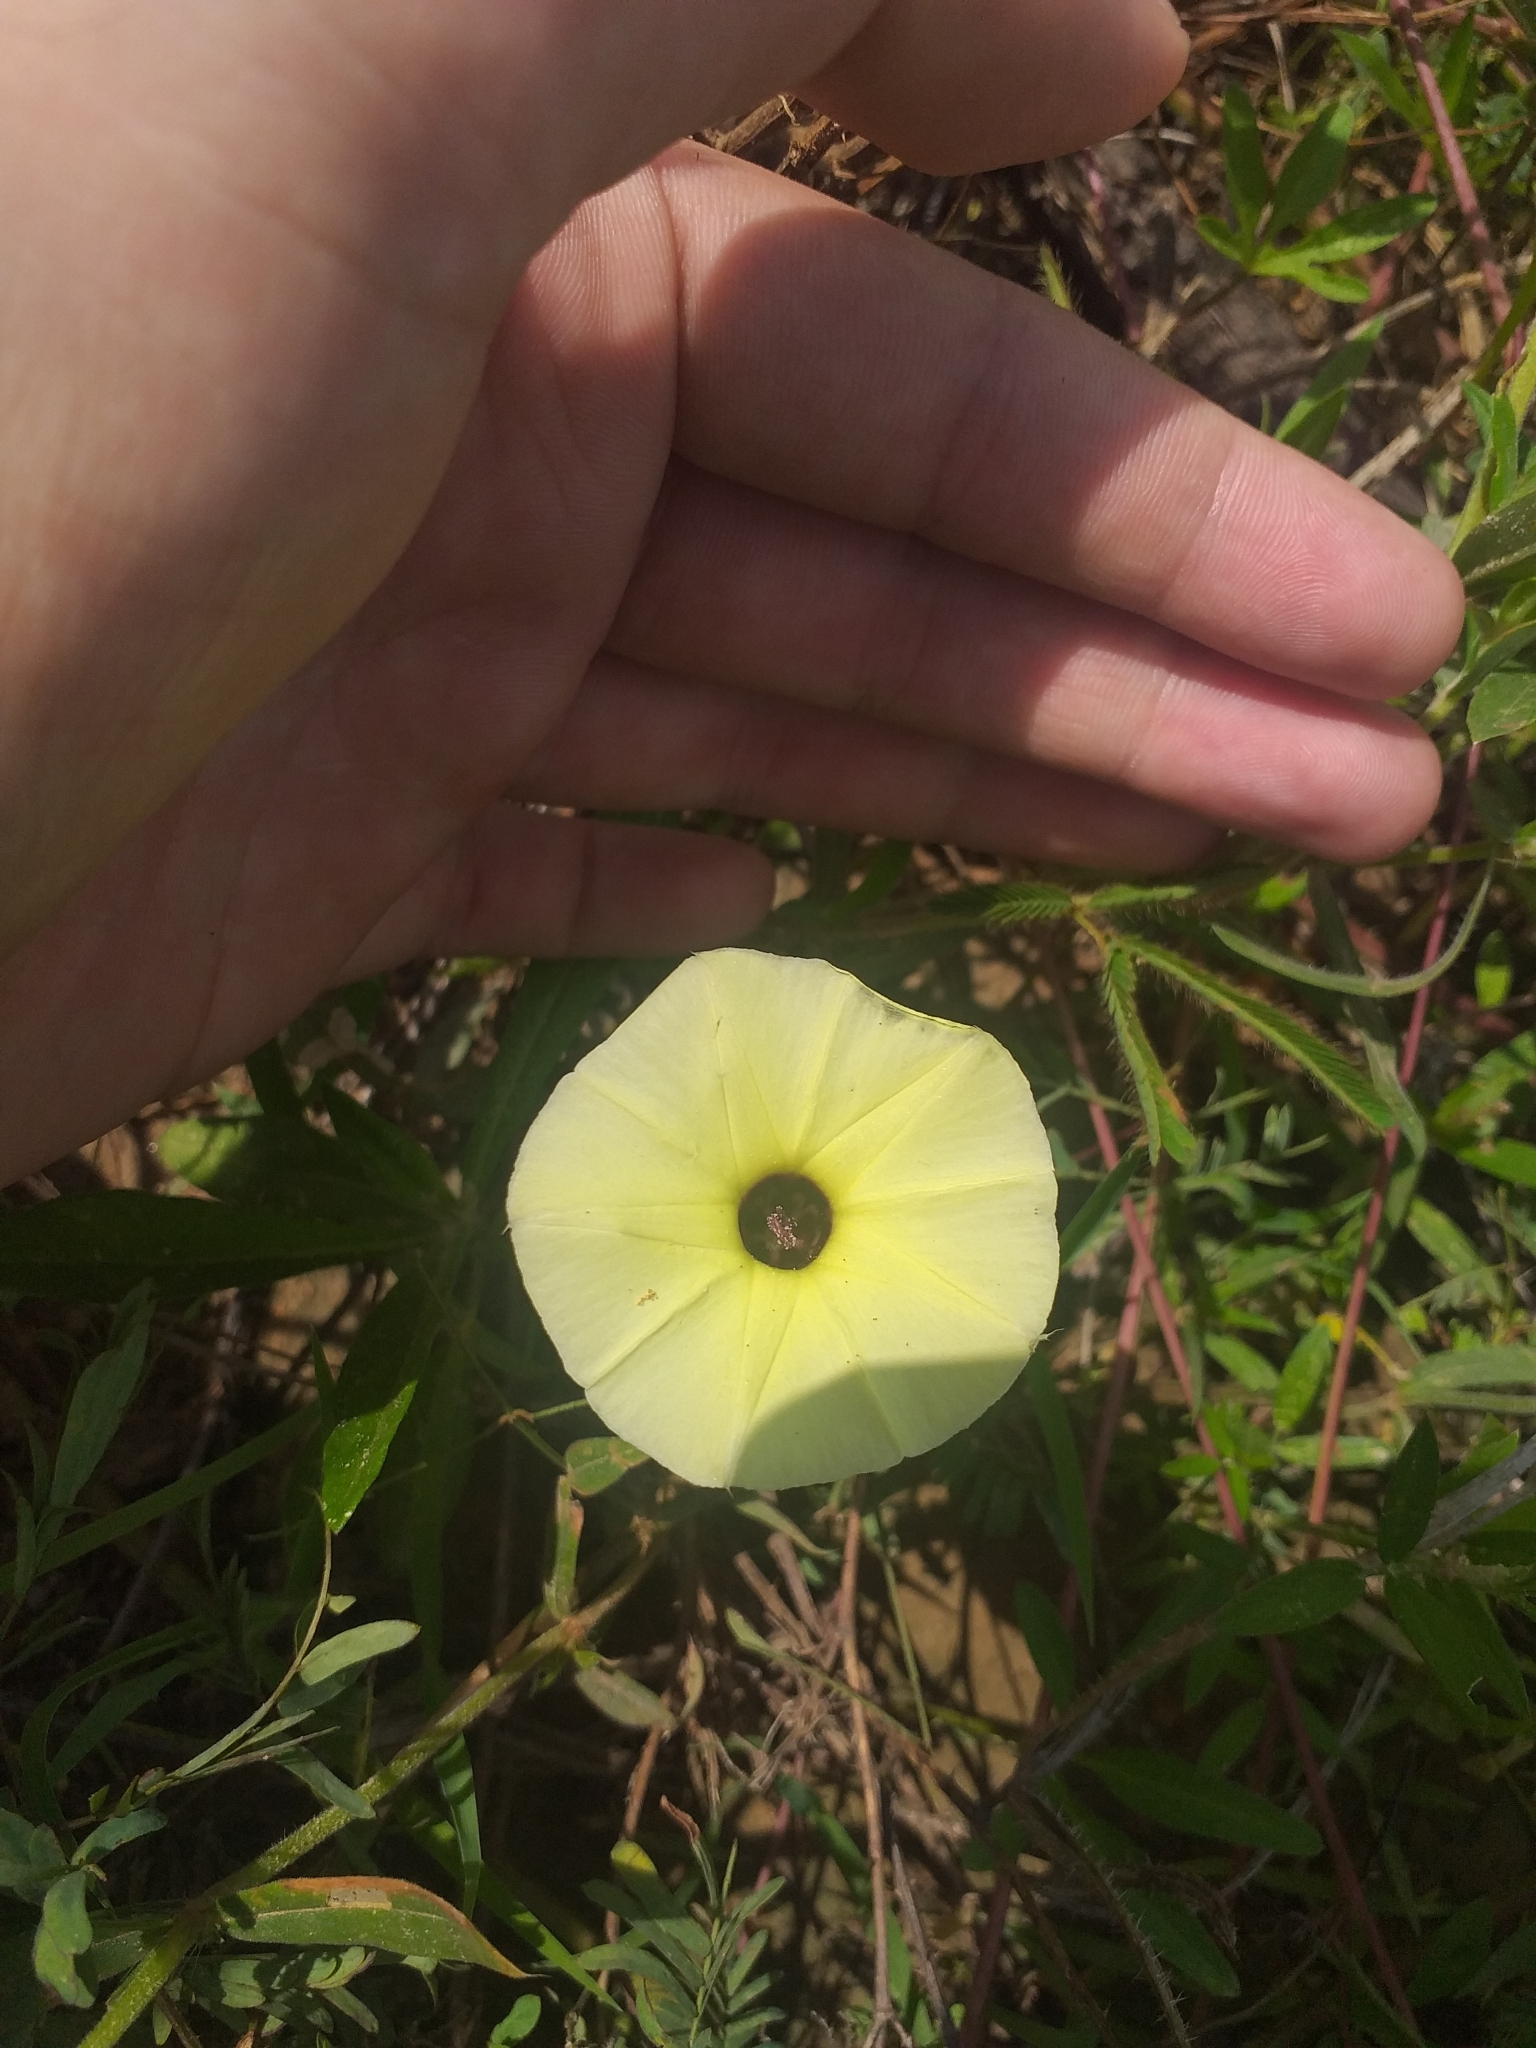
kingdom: Plantae
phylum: Tracheophyta
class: Magnoliopsida
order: Solanales
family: Convolvulaceae
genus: Ipomoea
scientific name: Ipomoea longeramosa
